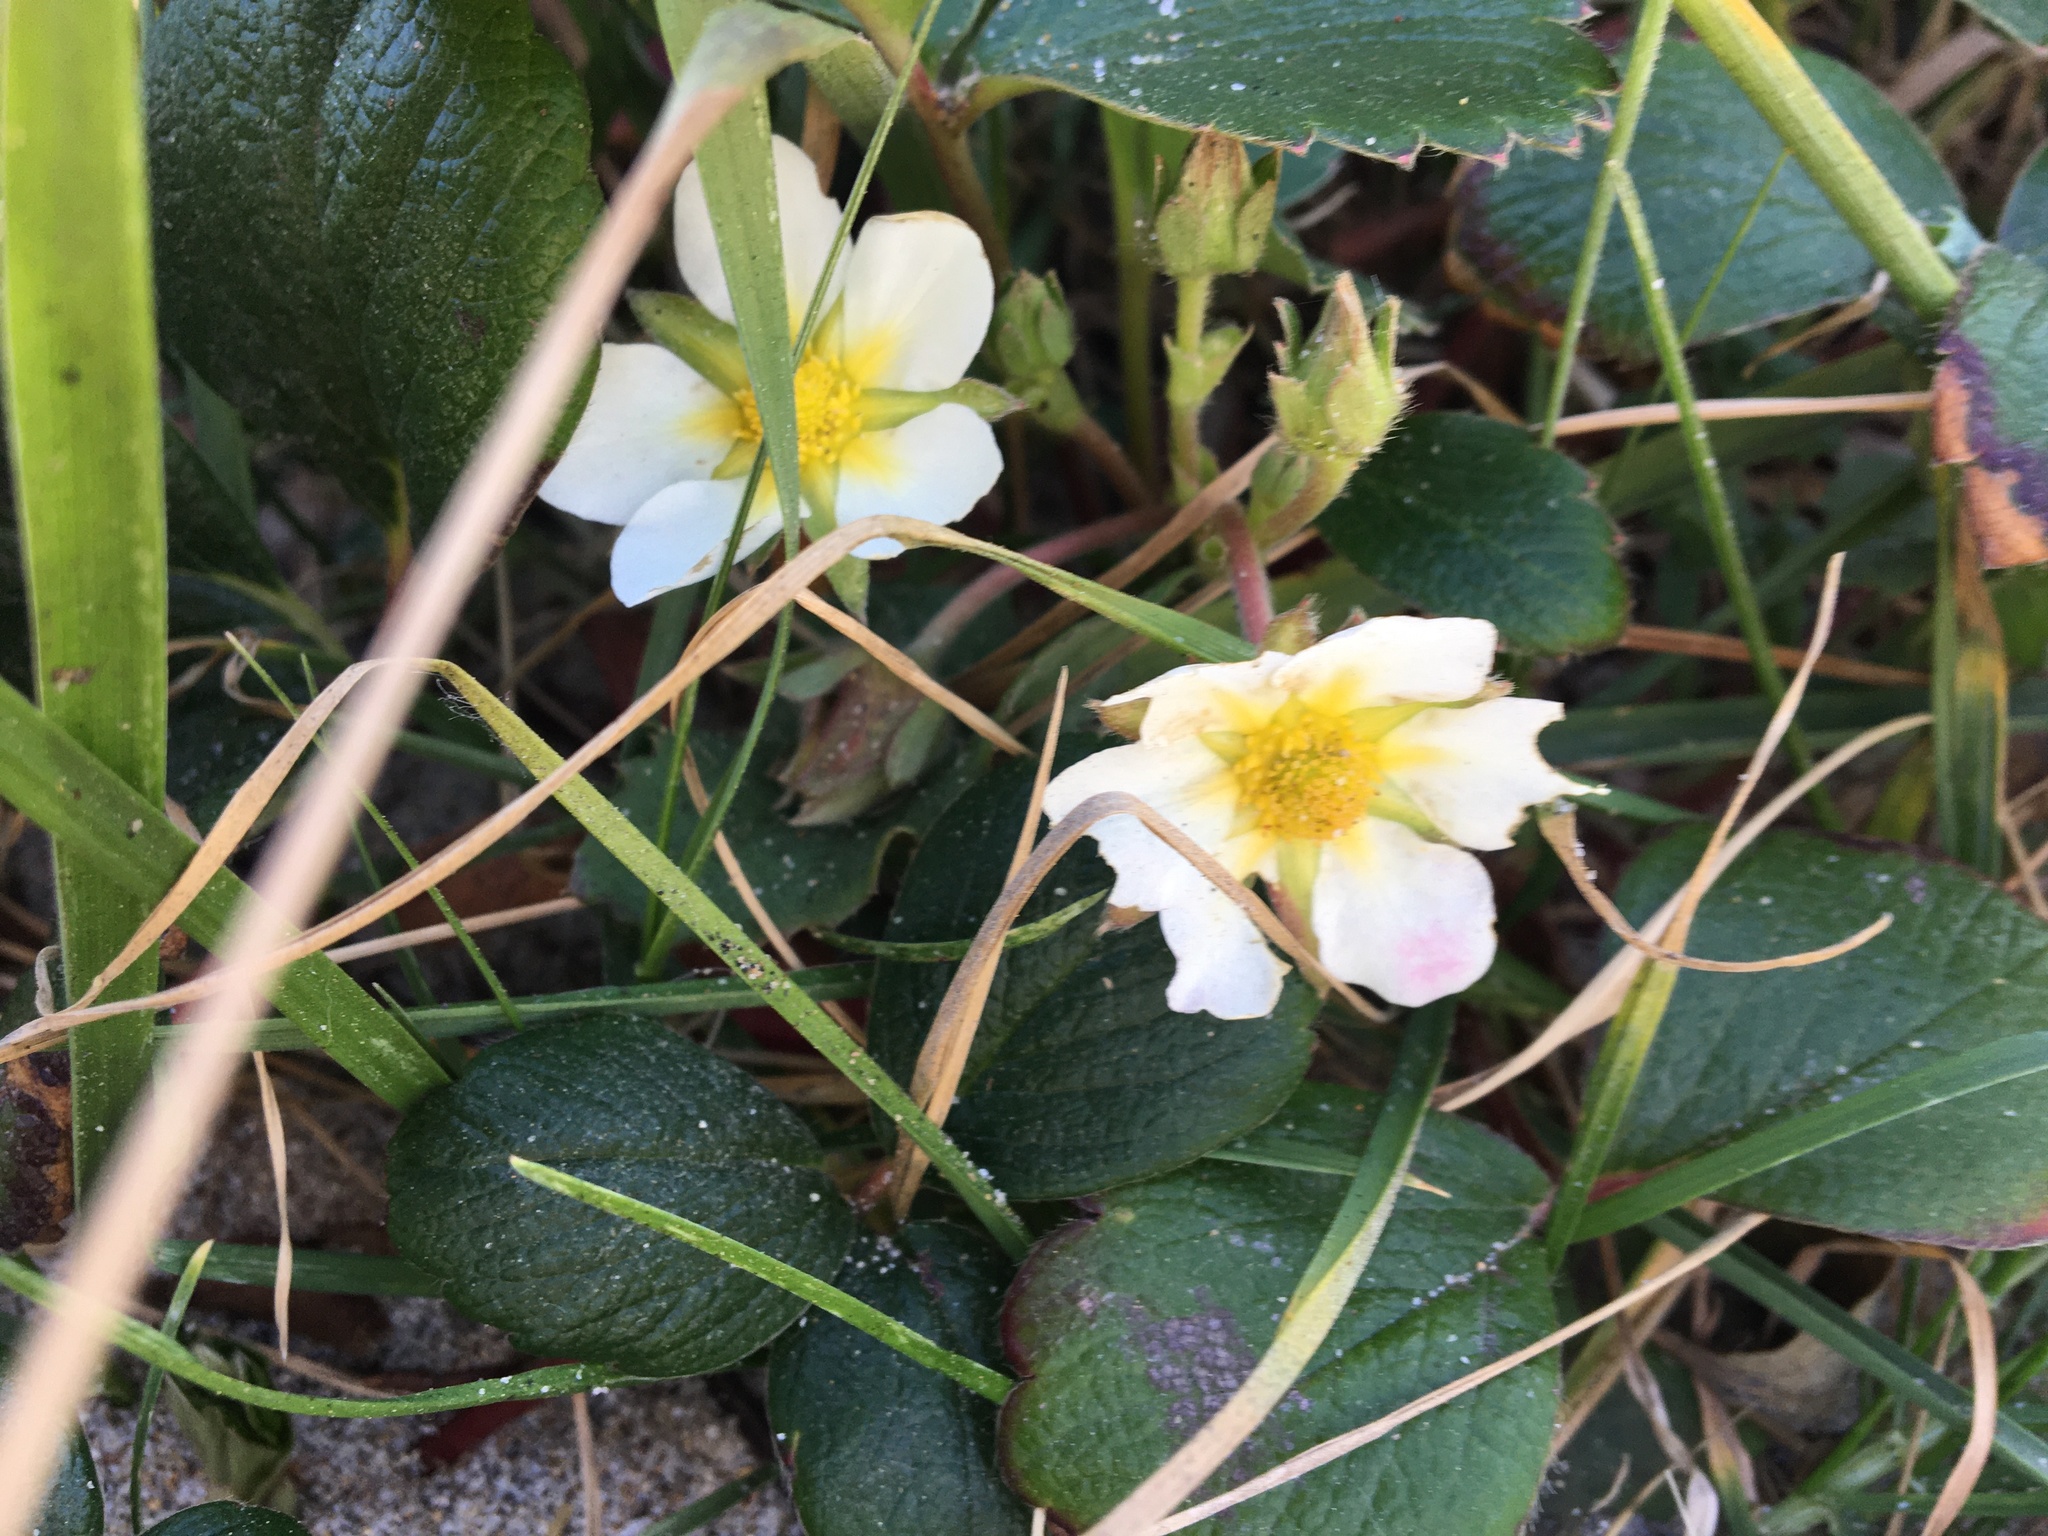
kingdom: Plantae
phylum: Tracheophyta
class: Magnoliopsida
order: Rosales
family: Rosaceae
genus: Fragaria
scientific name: Fragaria chiloensis
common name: Beach strawberry
